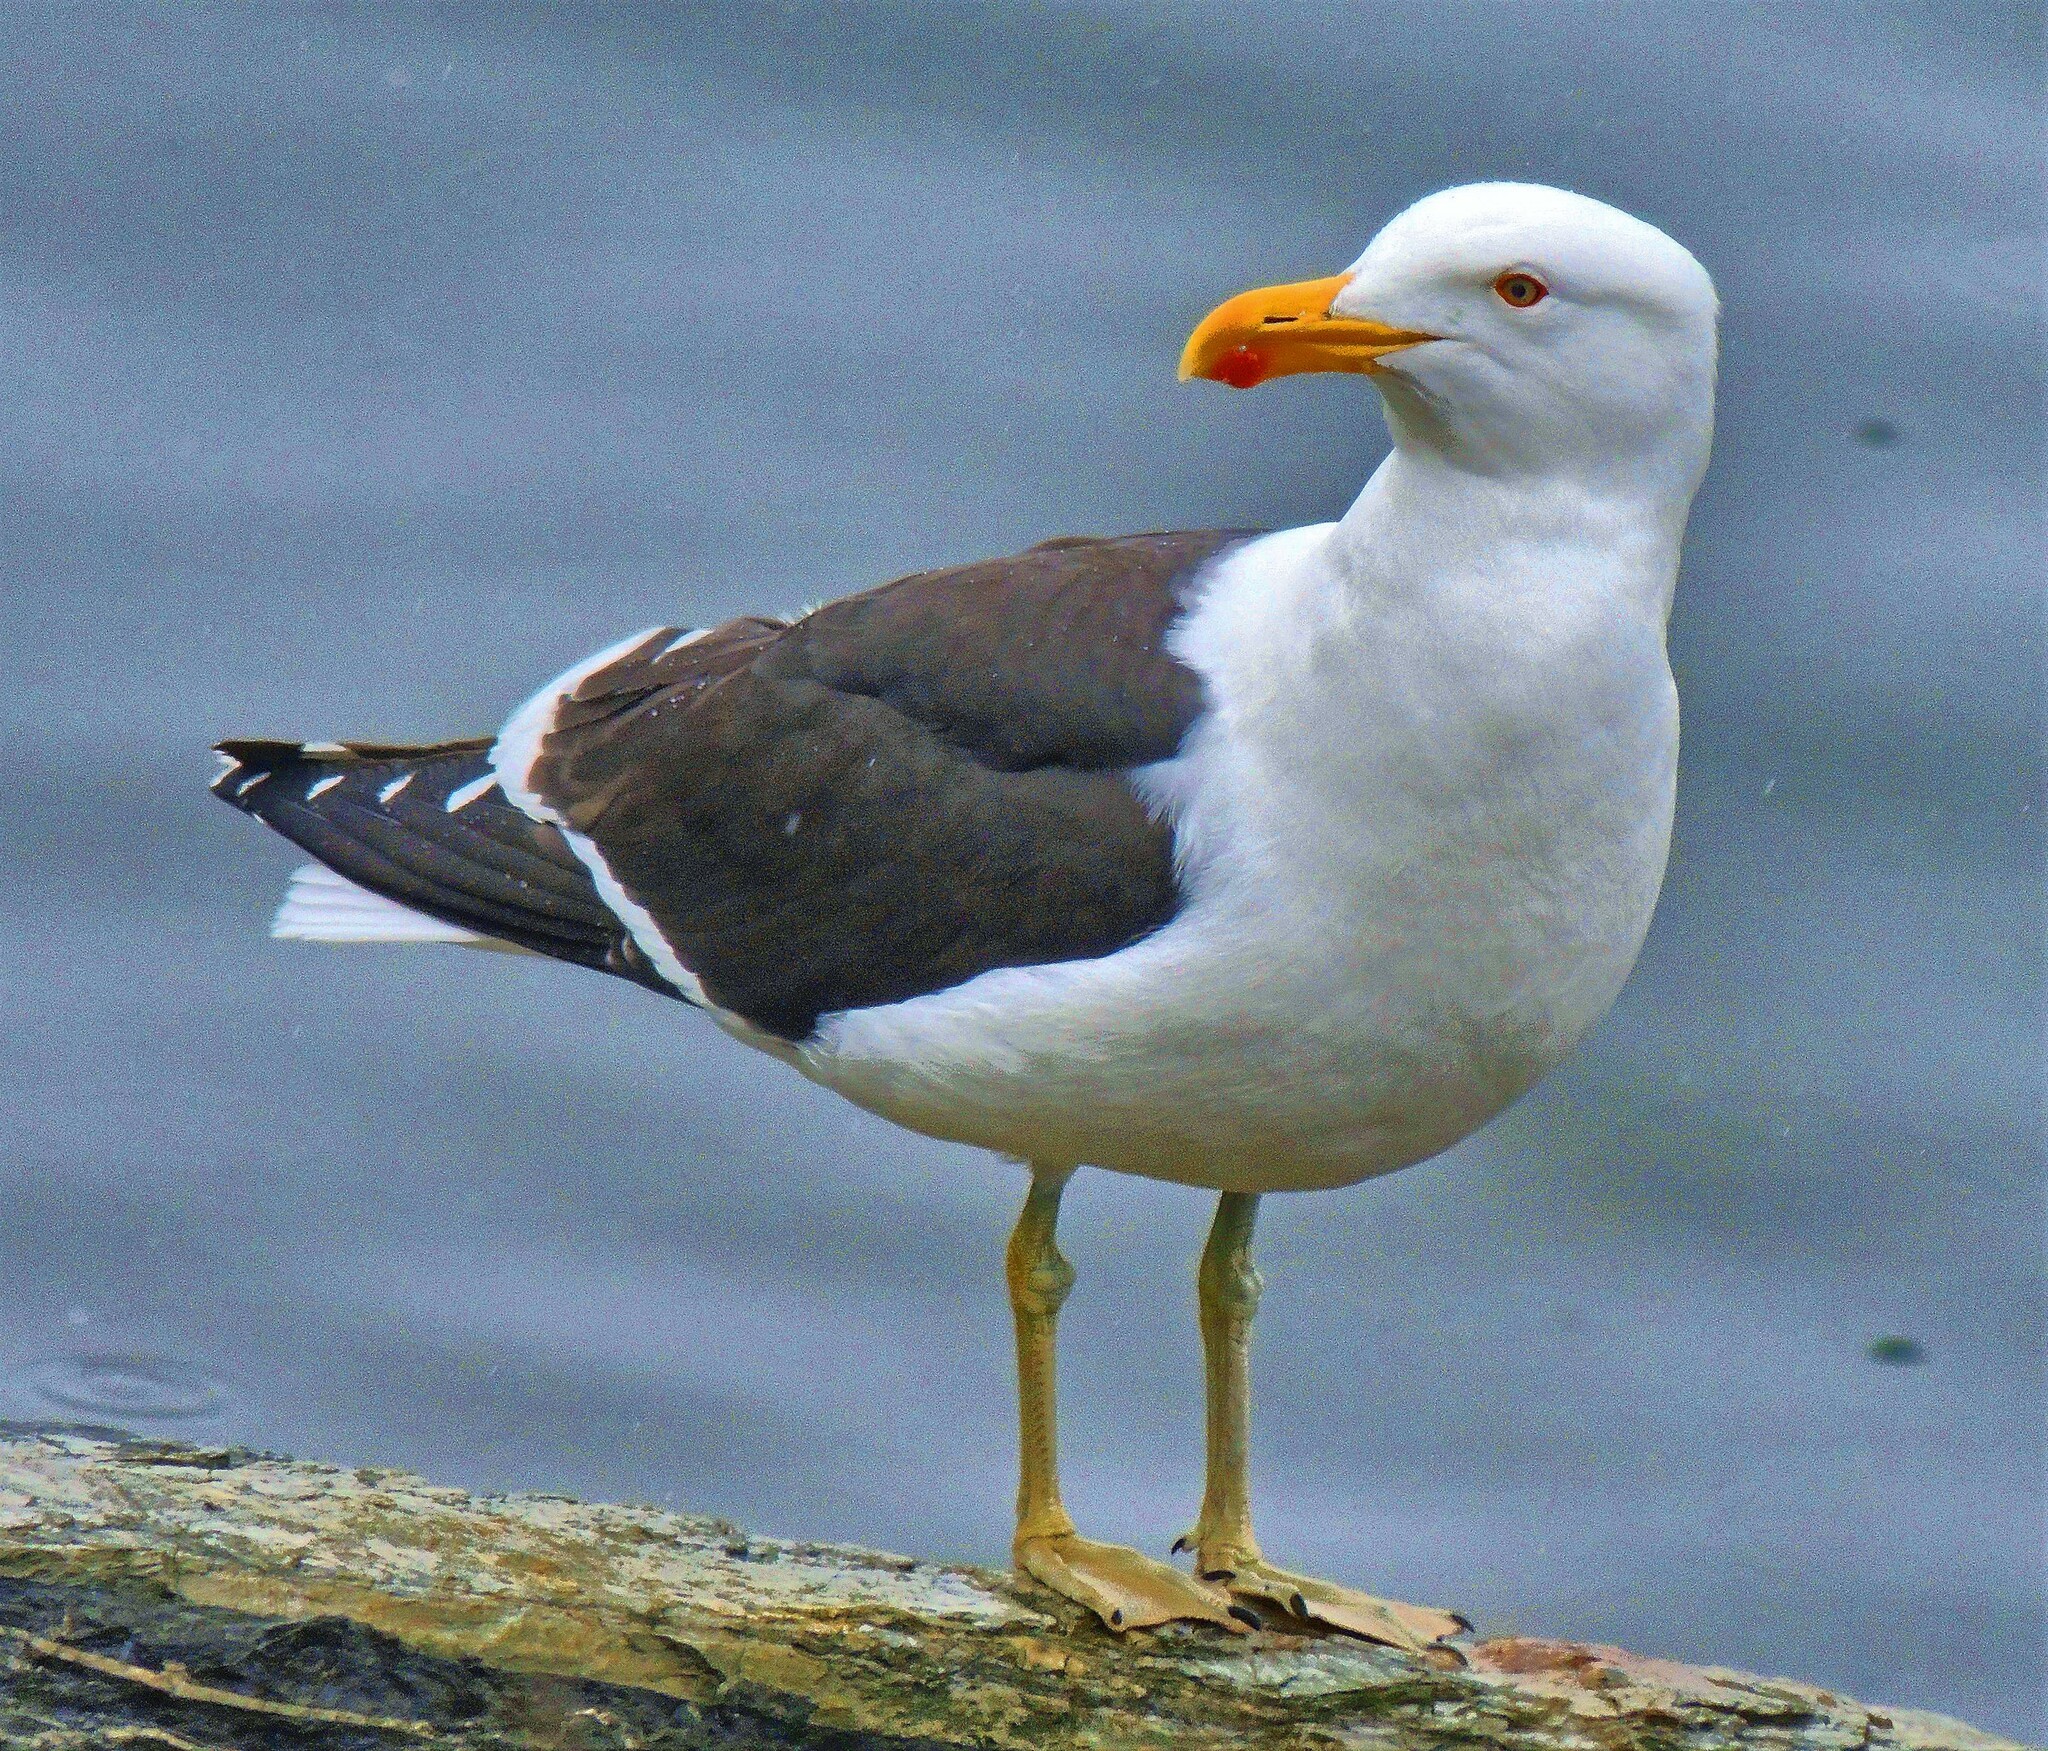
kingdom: Animalia
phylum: Chordata
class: Aves
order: Charadriiformes
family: Laridae
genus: Larus
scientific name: Larus dominicanus
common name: Kelp gull
